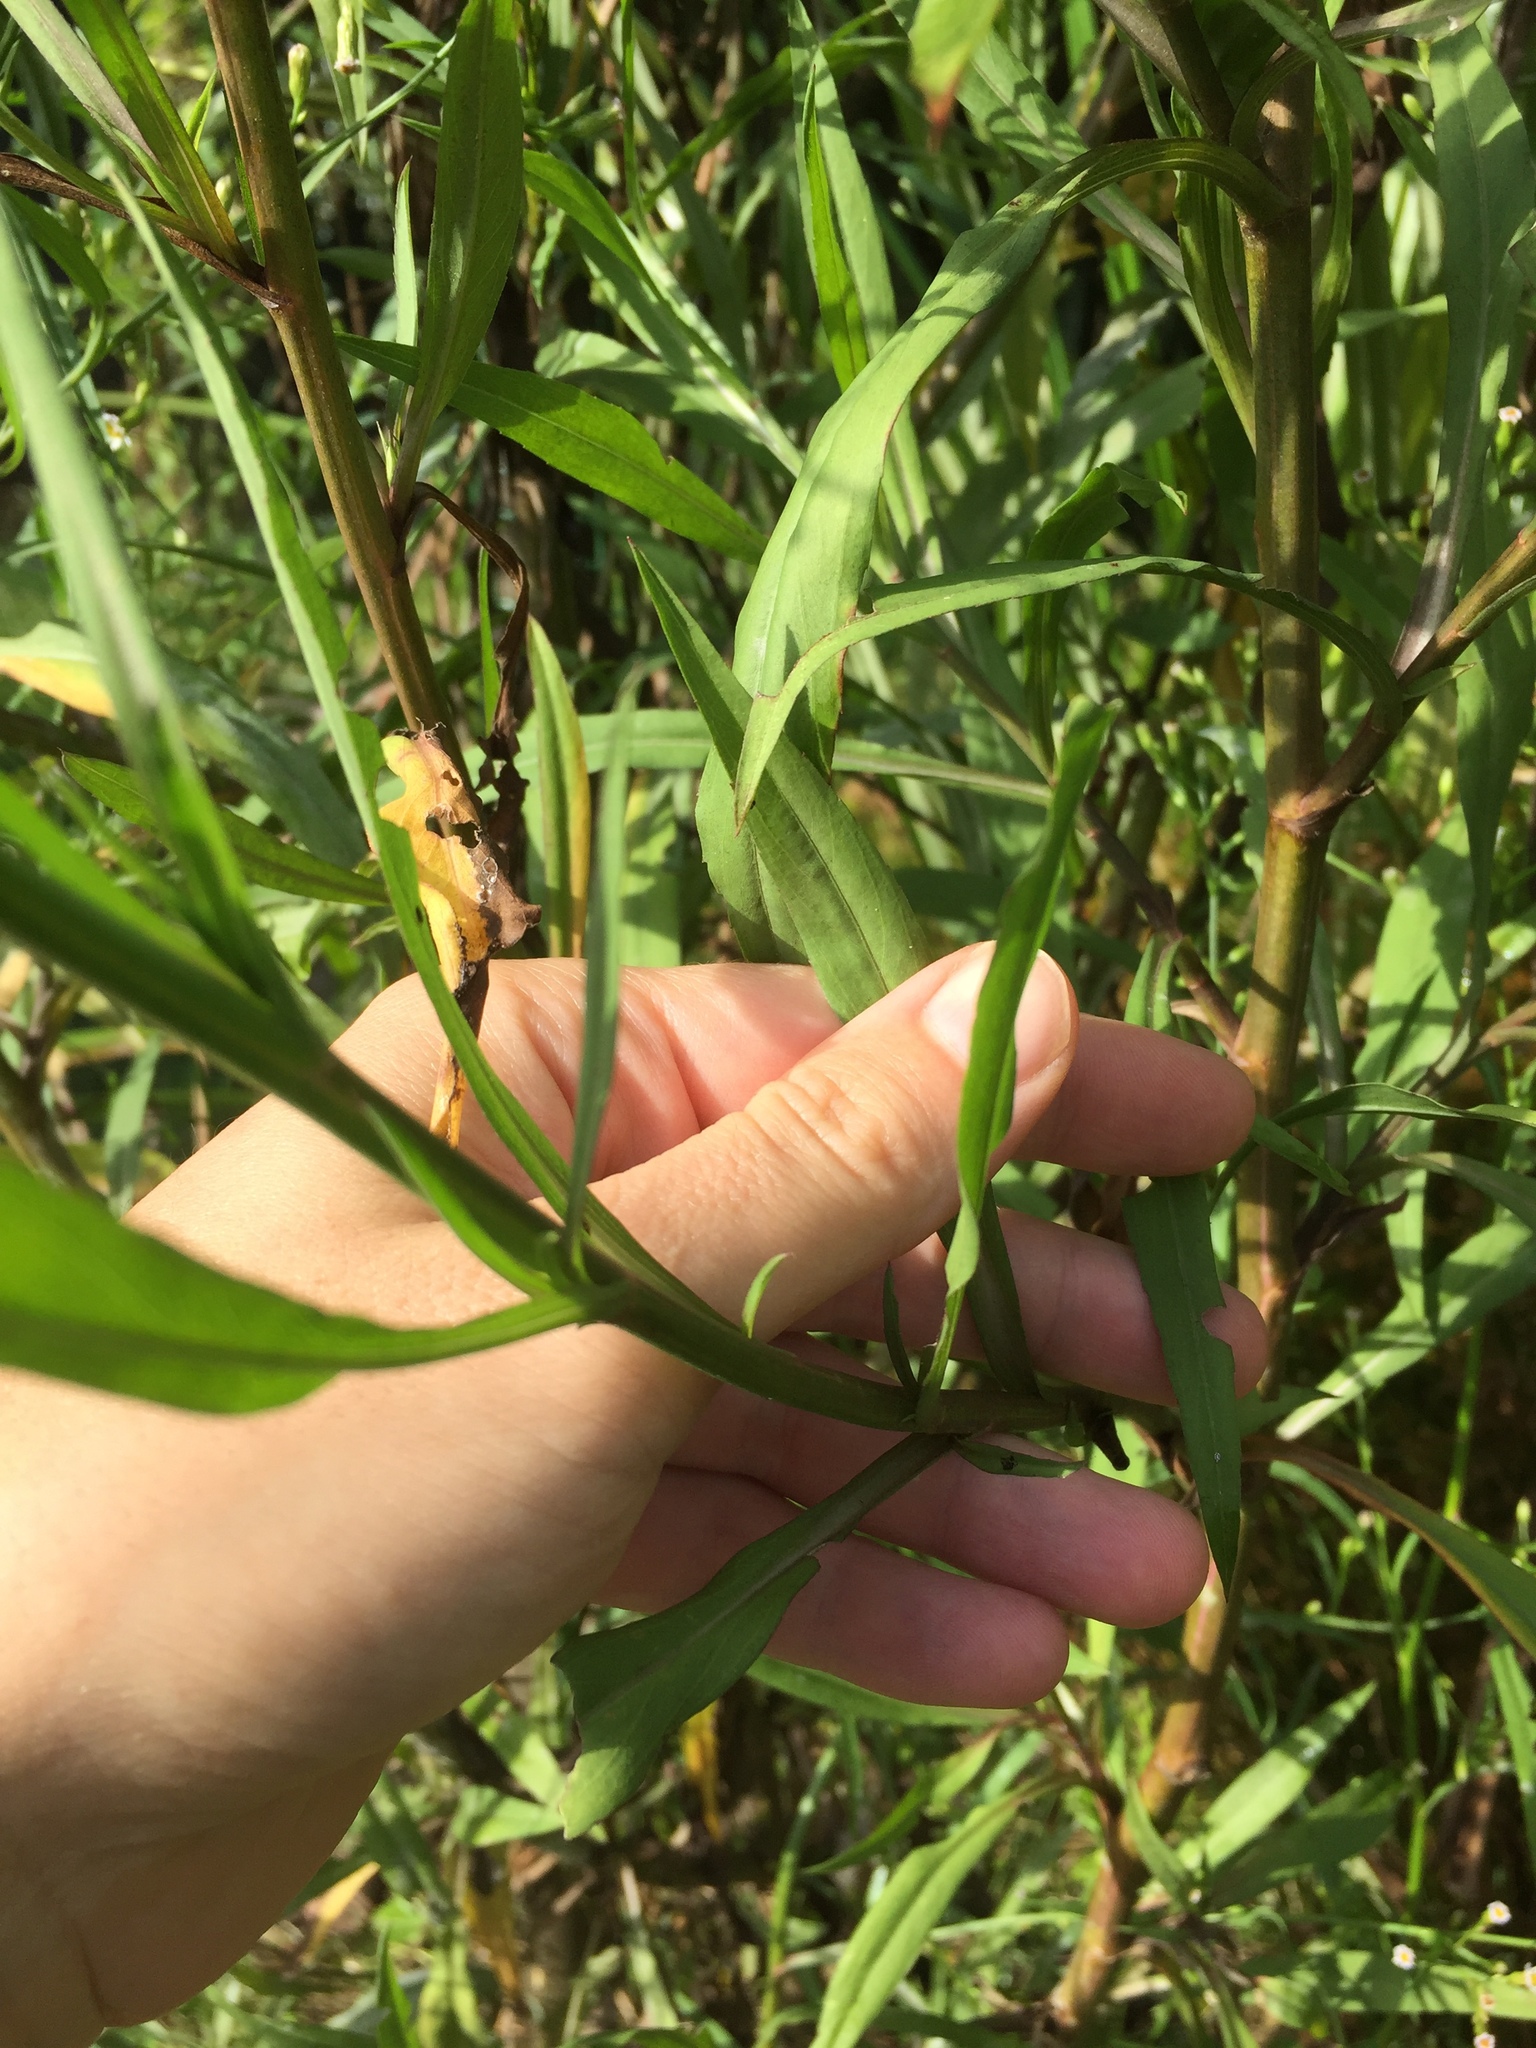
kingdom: Plantae
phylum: Tracheophyta
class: Magnoliopsida
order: Asterales
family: Asteraceae
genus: Symphyotrichum
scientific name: Symphyotrichum squamatum
